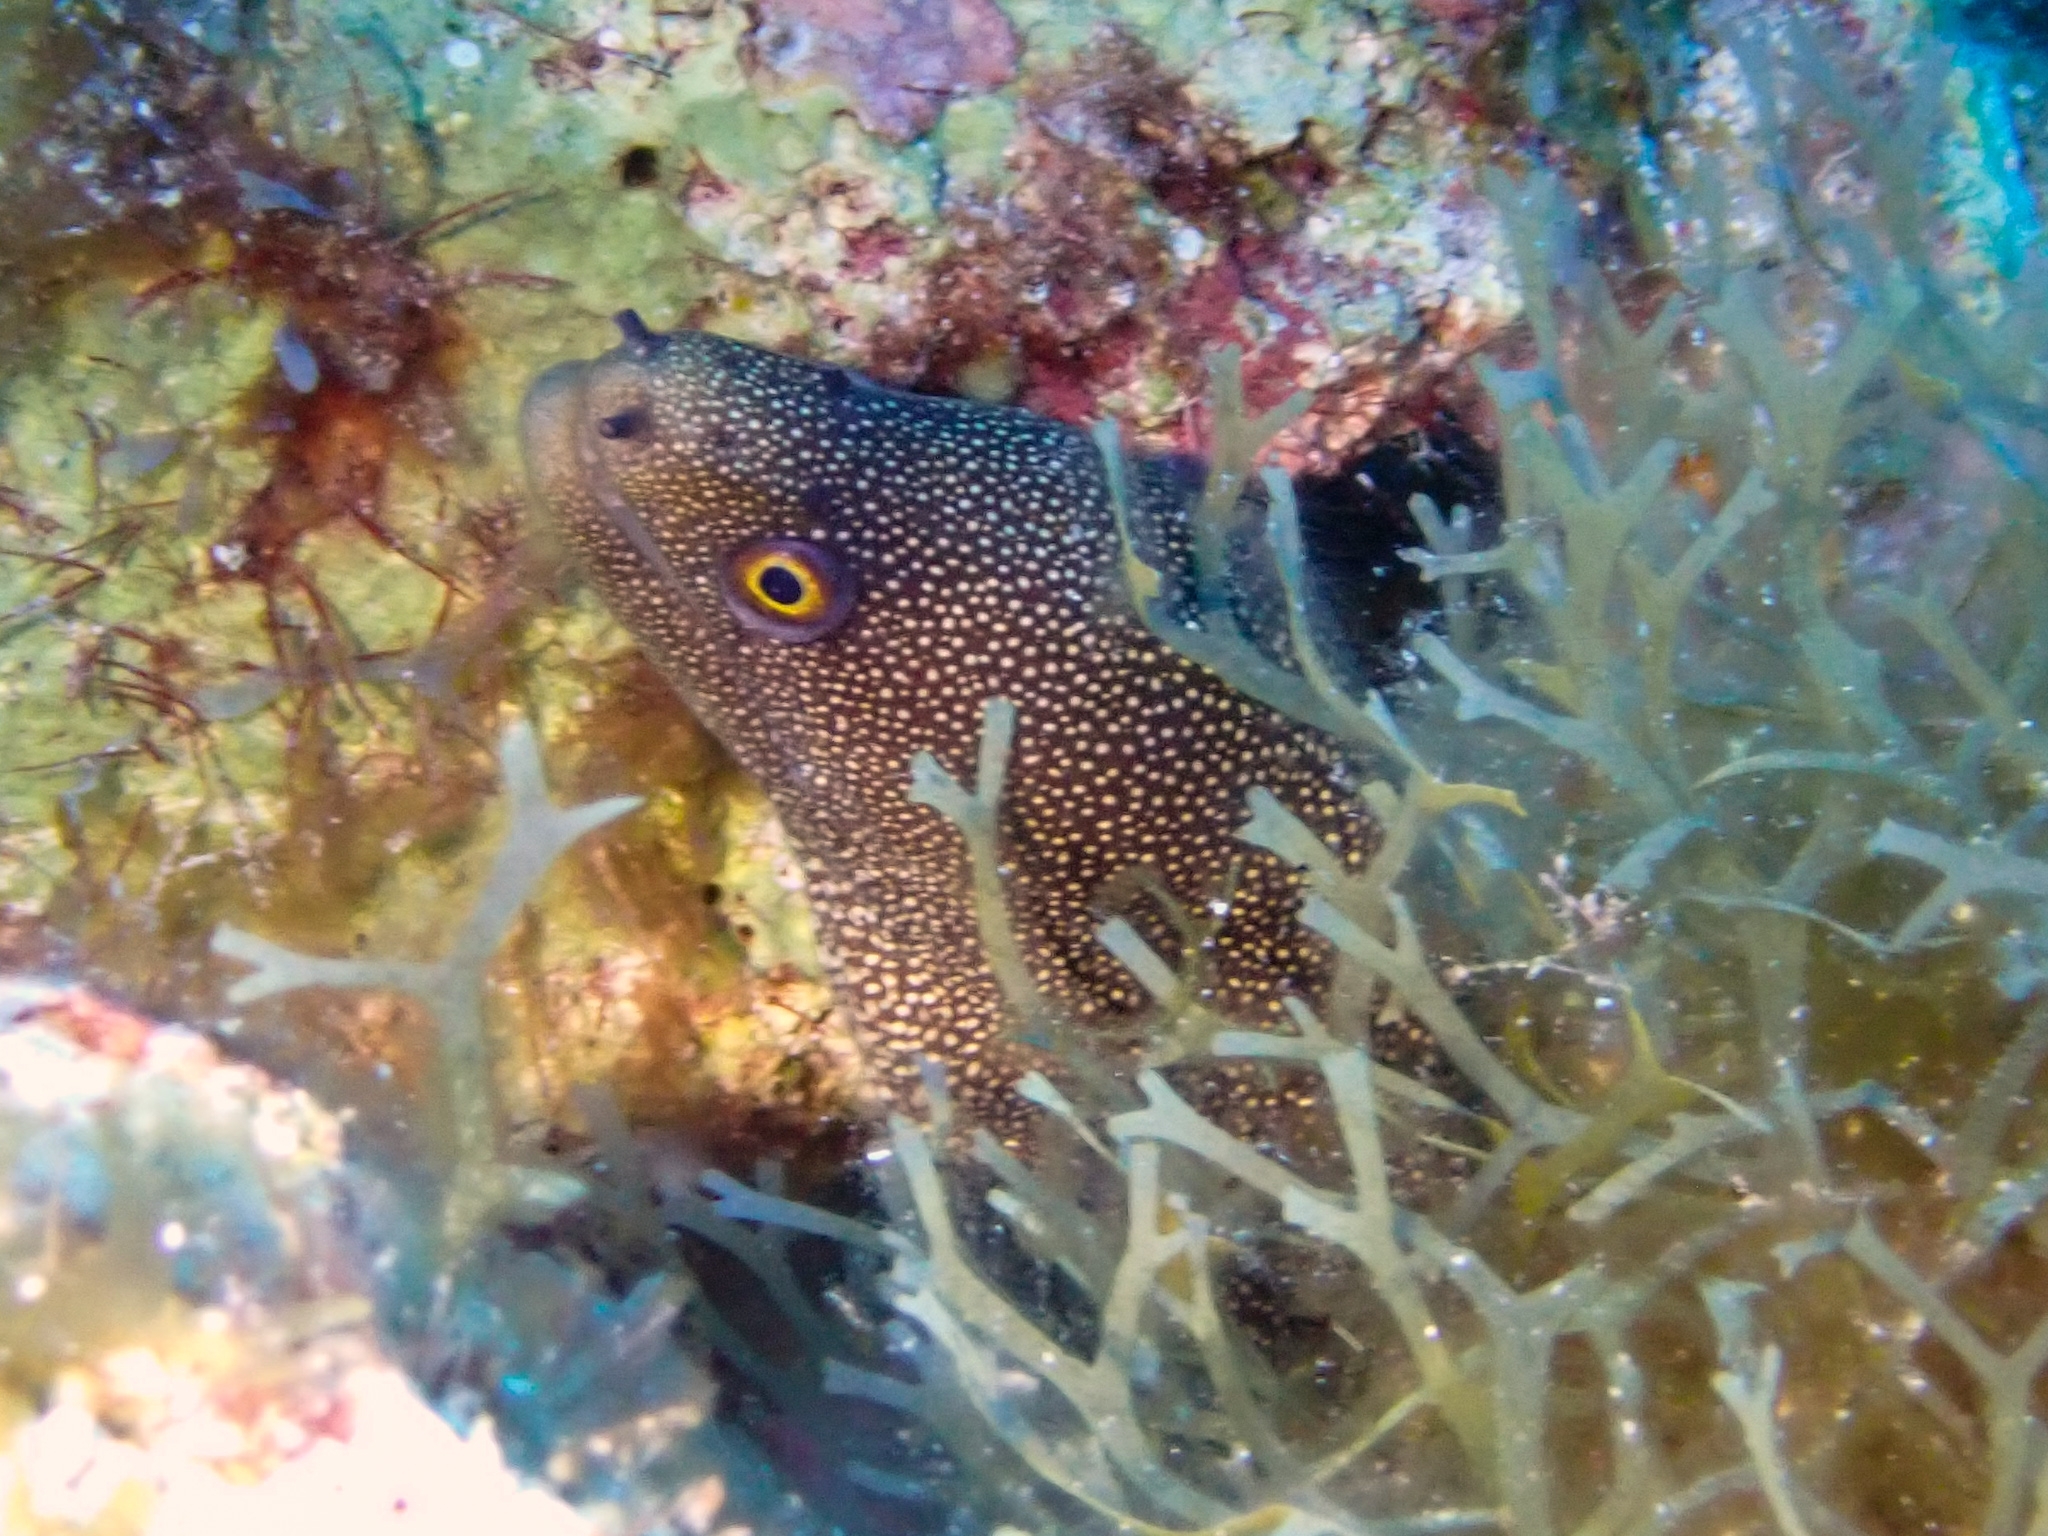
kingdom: Animalia
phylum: Chordata
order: Anguilliformes
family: Muraenidae
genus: Gymnothorax
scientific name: Gymnothorax miliaris
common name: Goldentail moray
